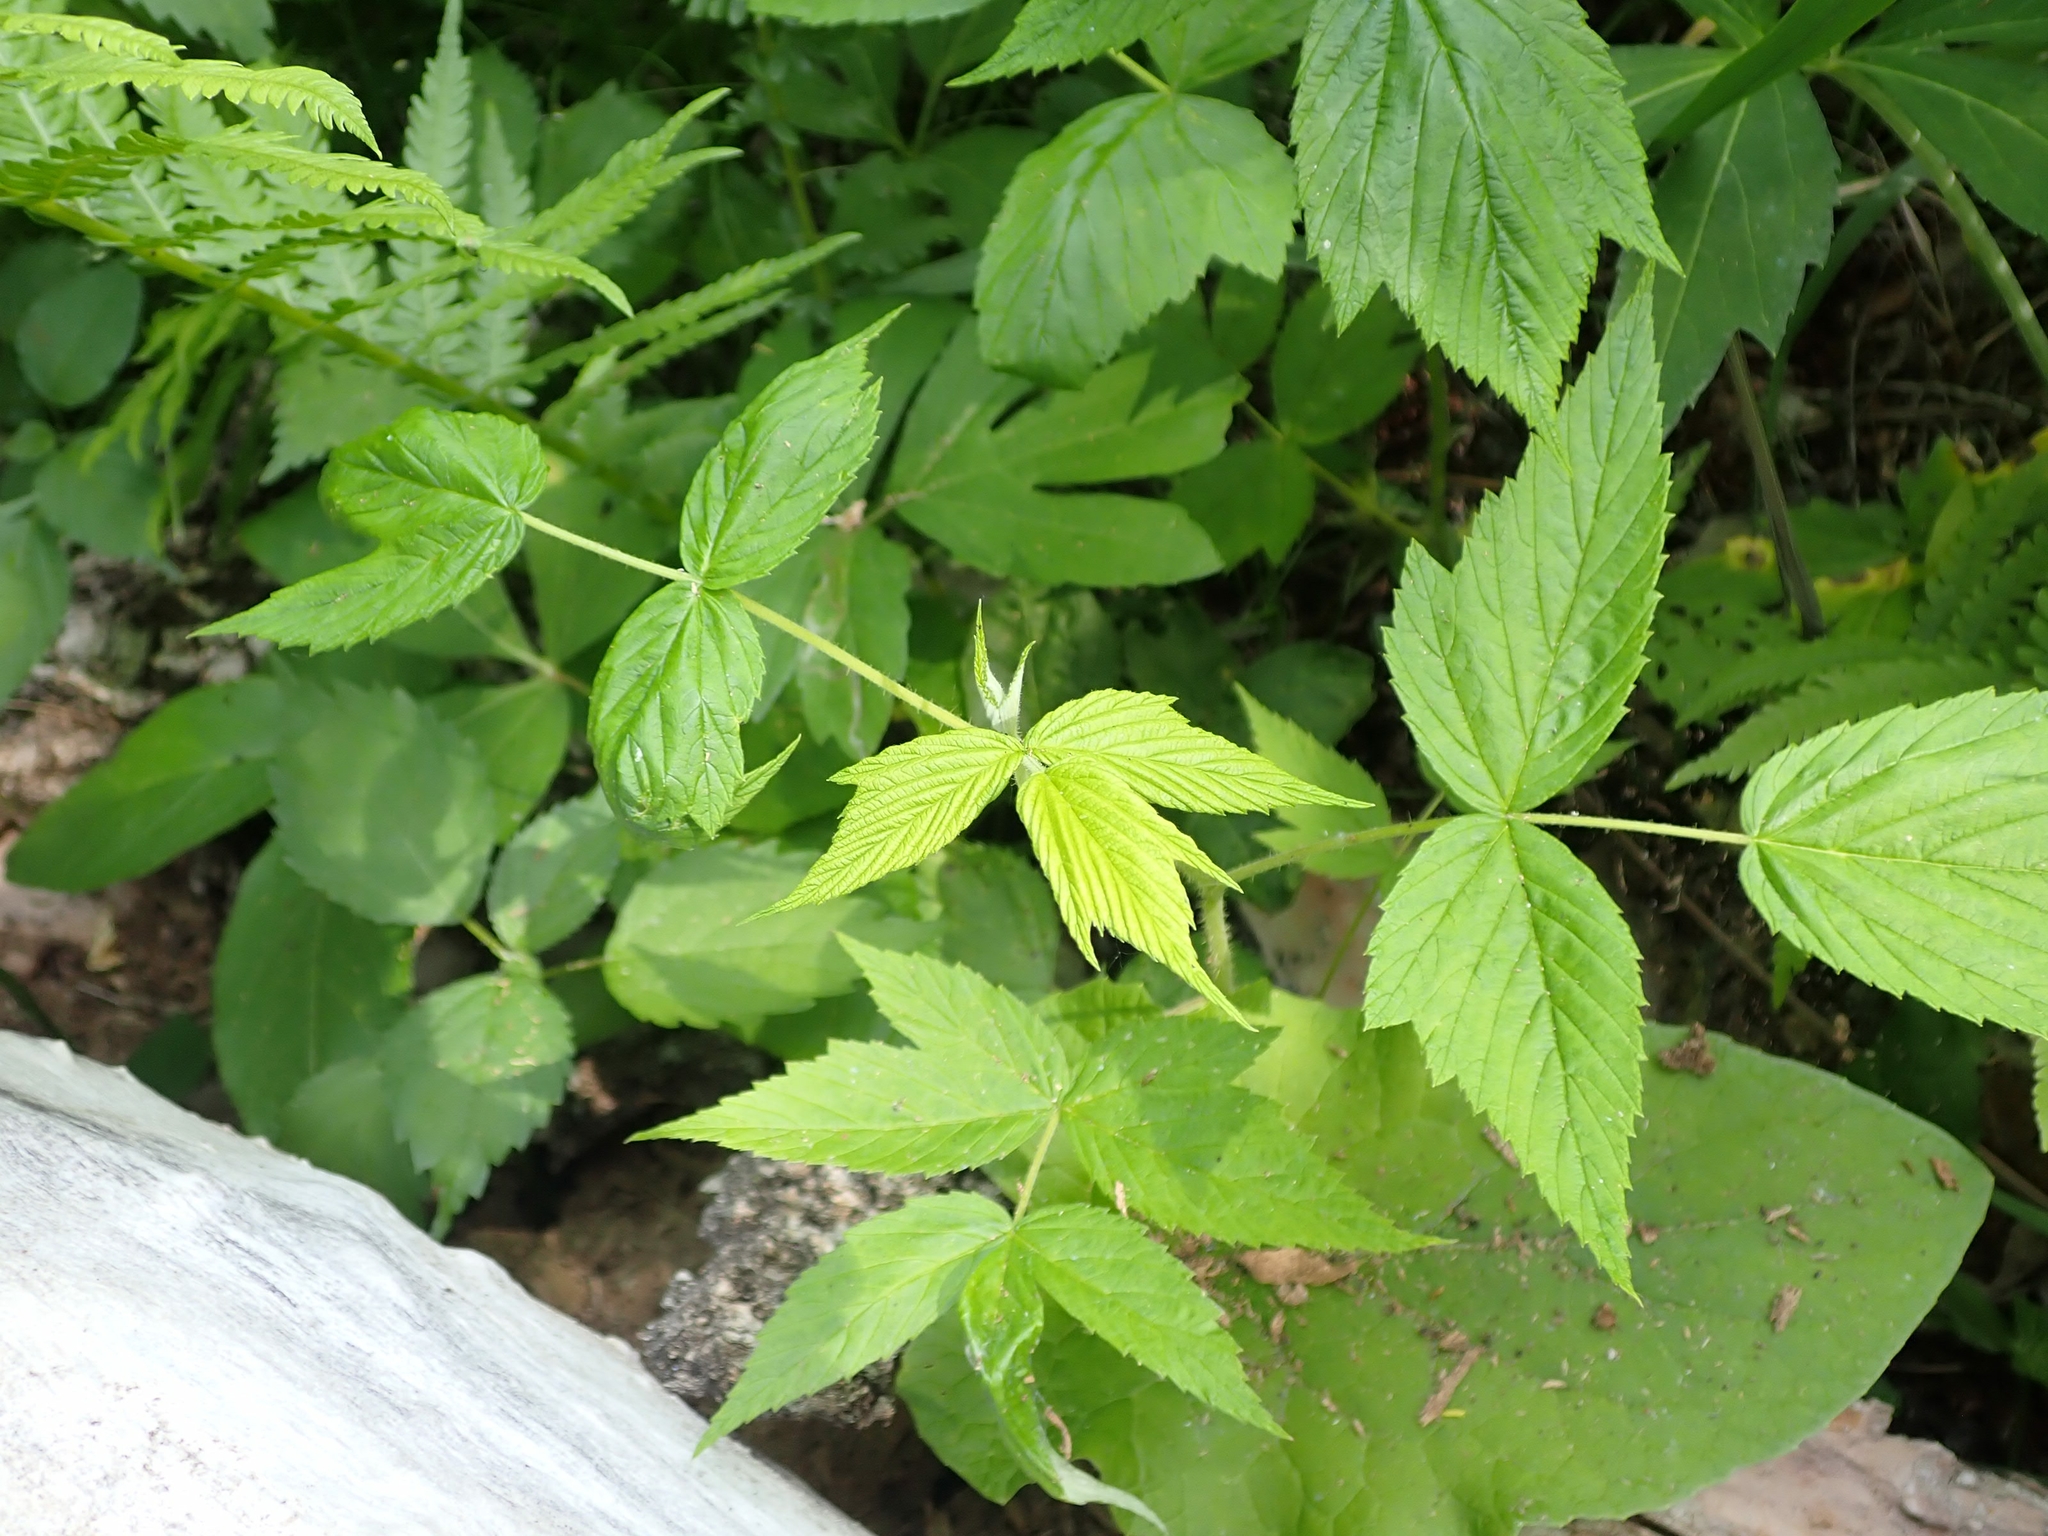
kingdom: Plantae
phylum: Tracheophyta
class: Magnoliopsida
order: Rosales
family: Rosaceae
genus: Rubus
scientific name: Rubus idaeus
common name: Raspberry
